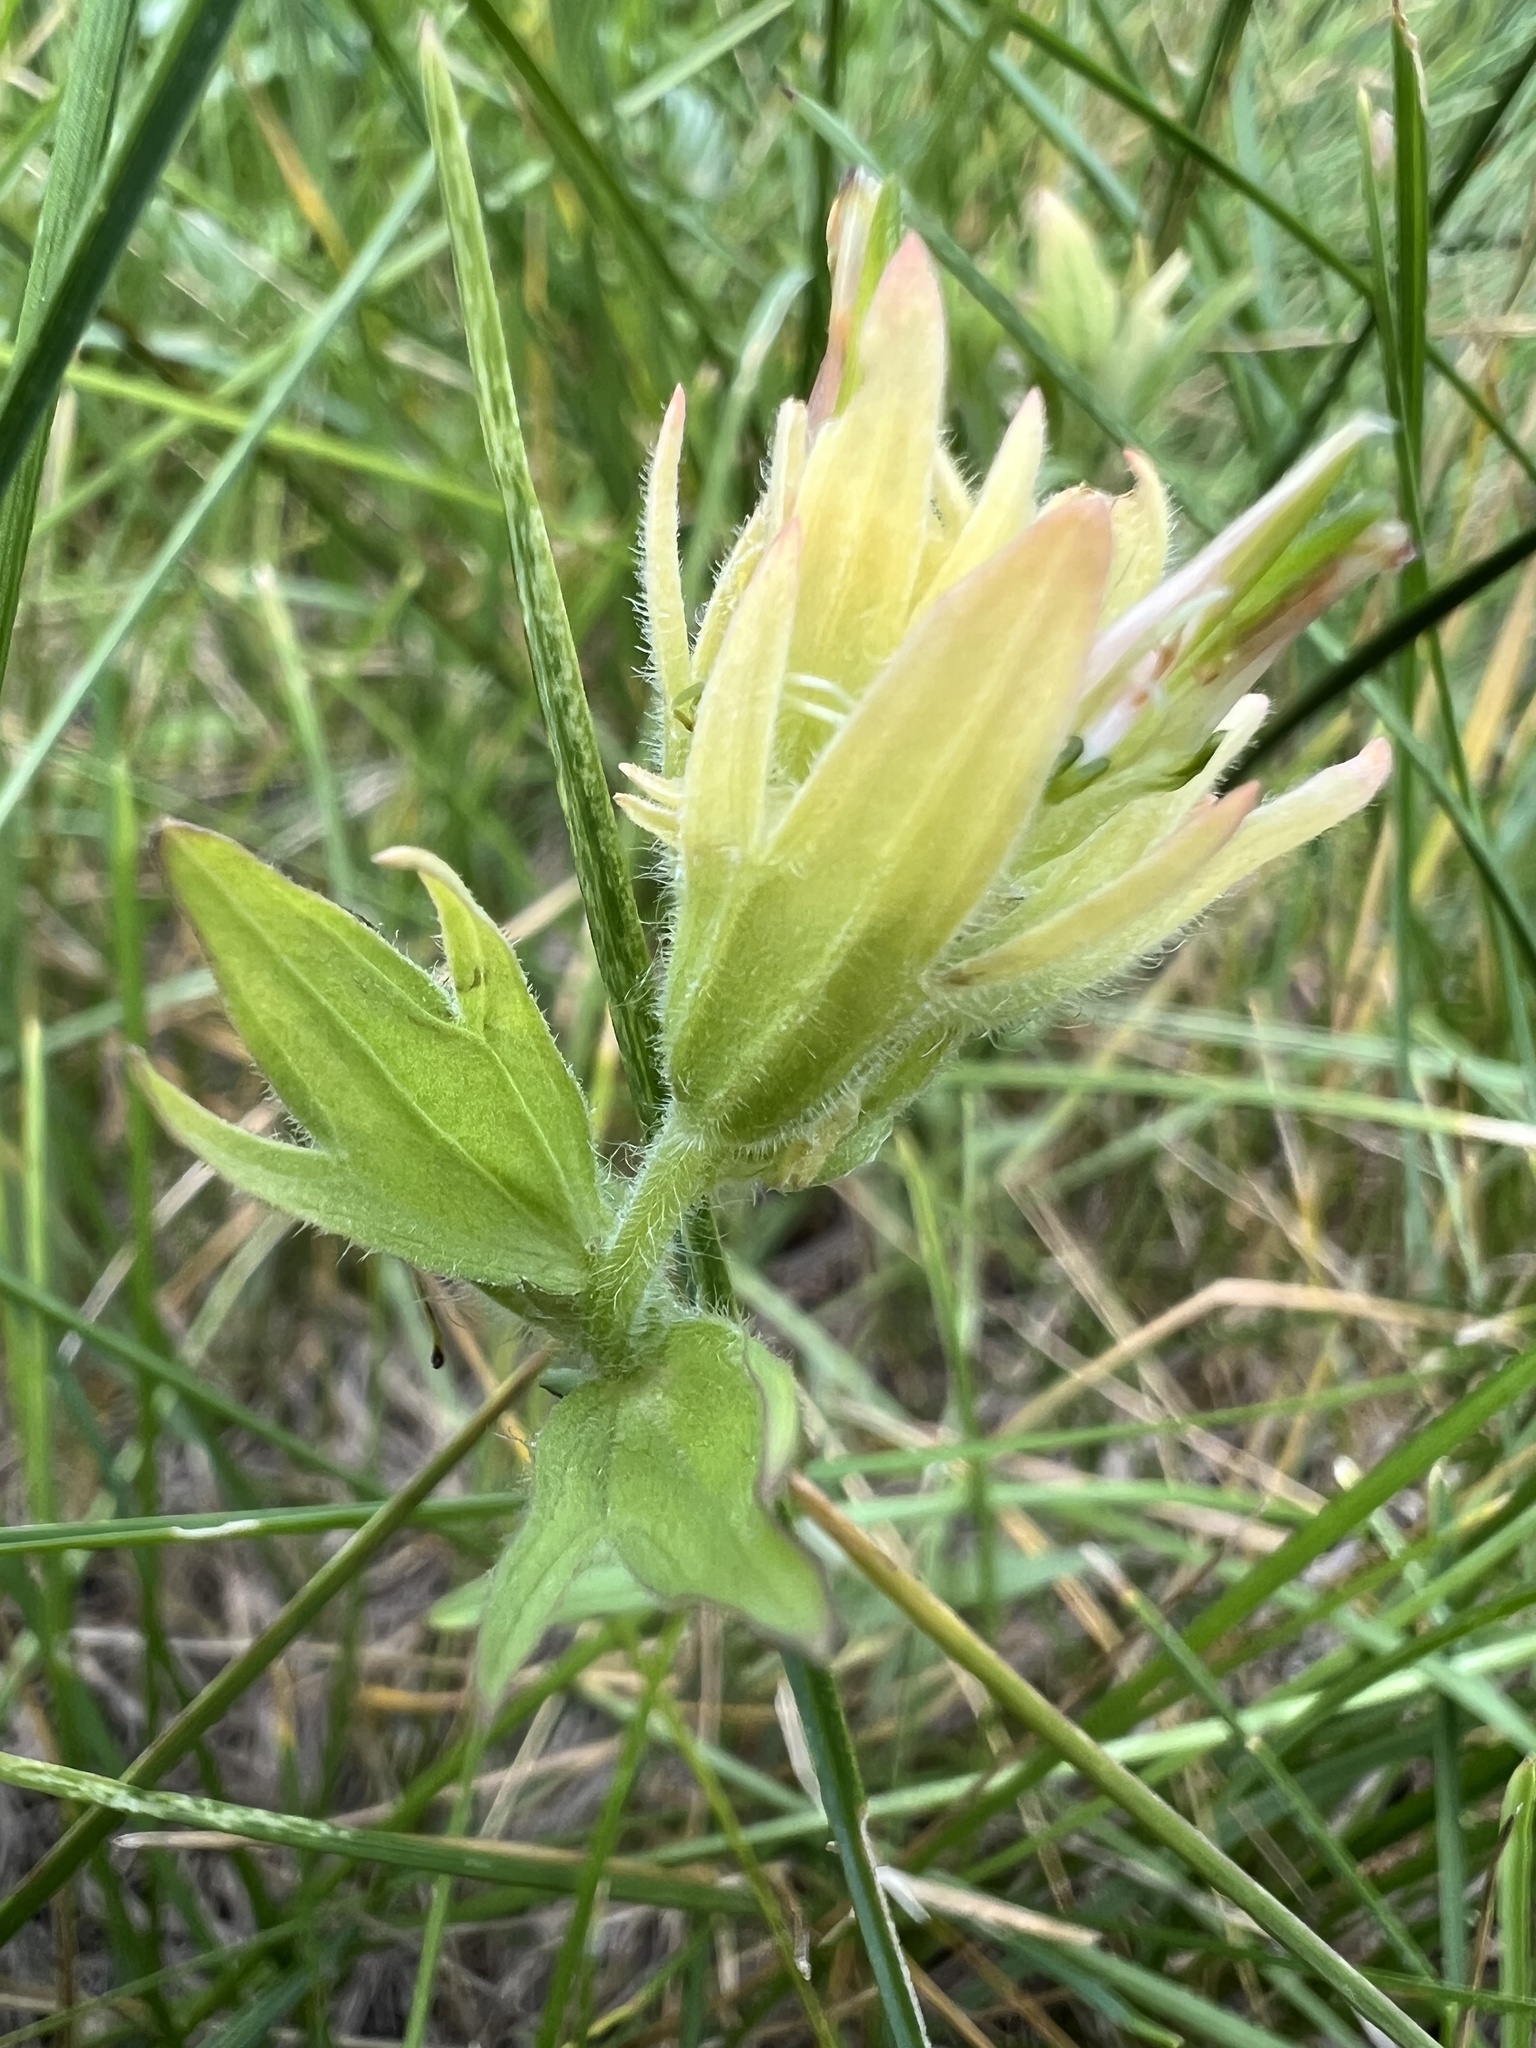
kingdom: Plantae
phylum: Tracheophyta
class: Magnoliopsida
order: Lamiales
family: Orobanchaceae
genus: Castilleja
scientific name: Castilleja mogollonica
